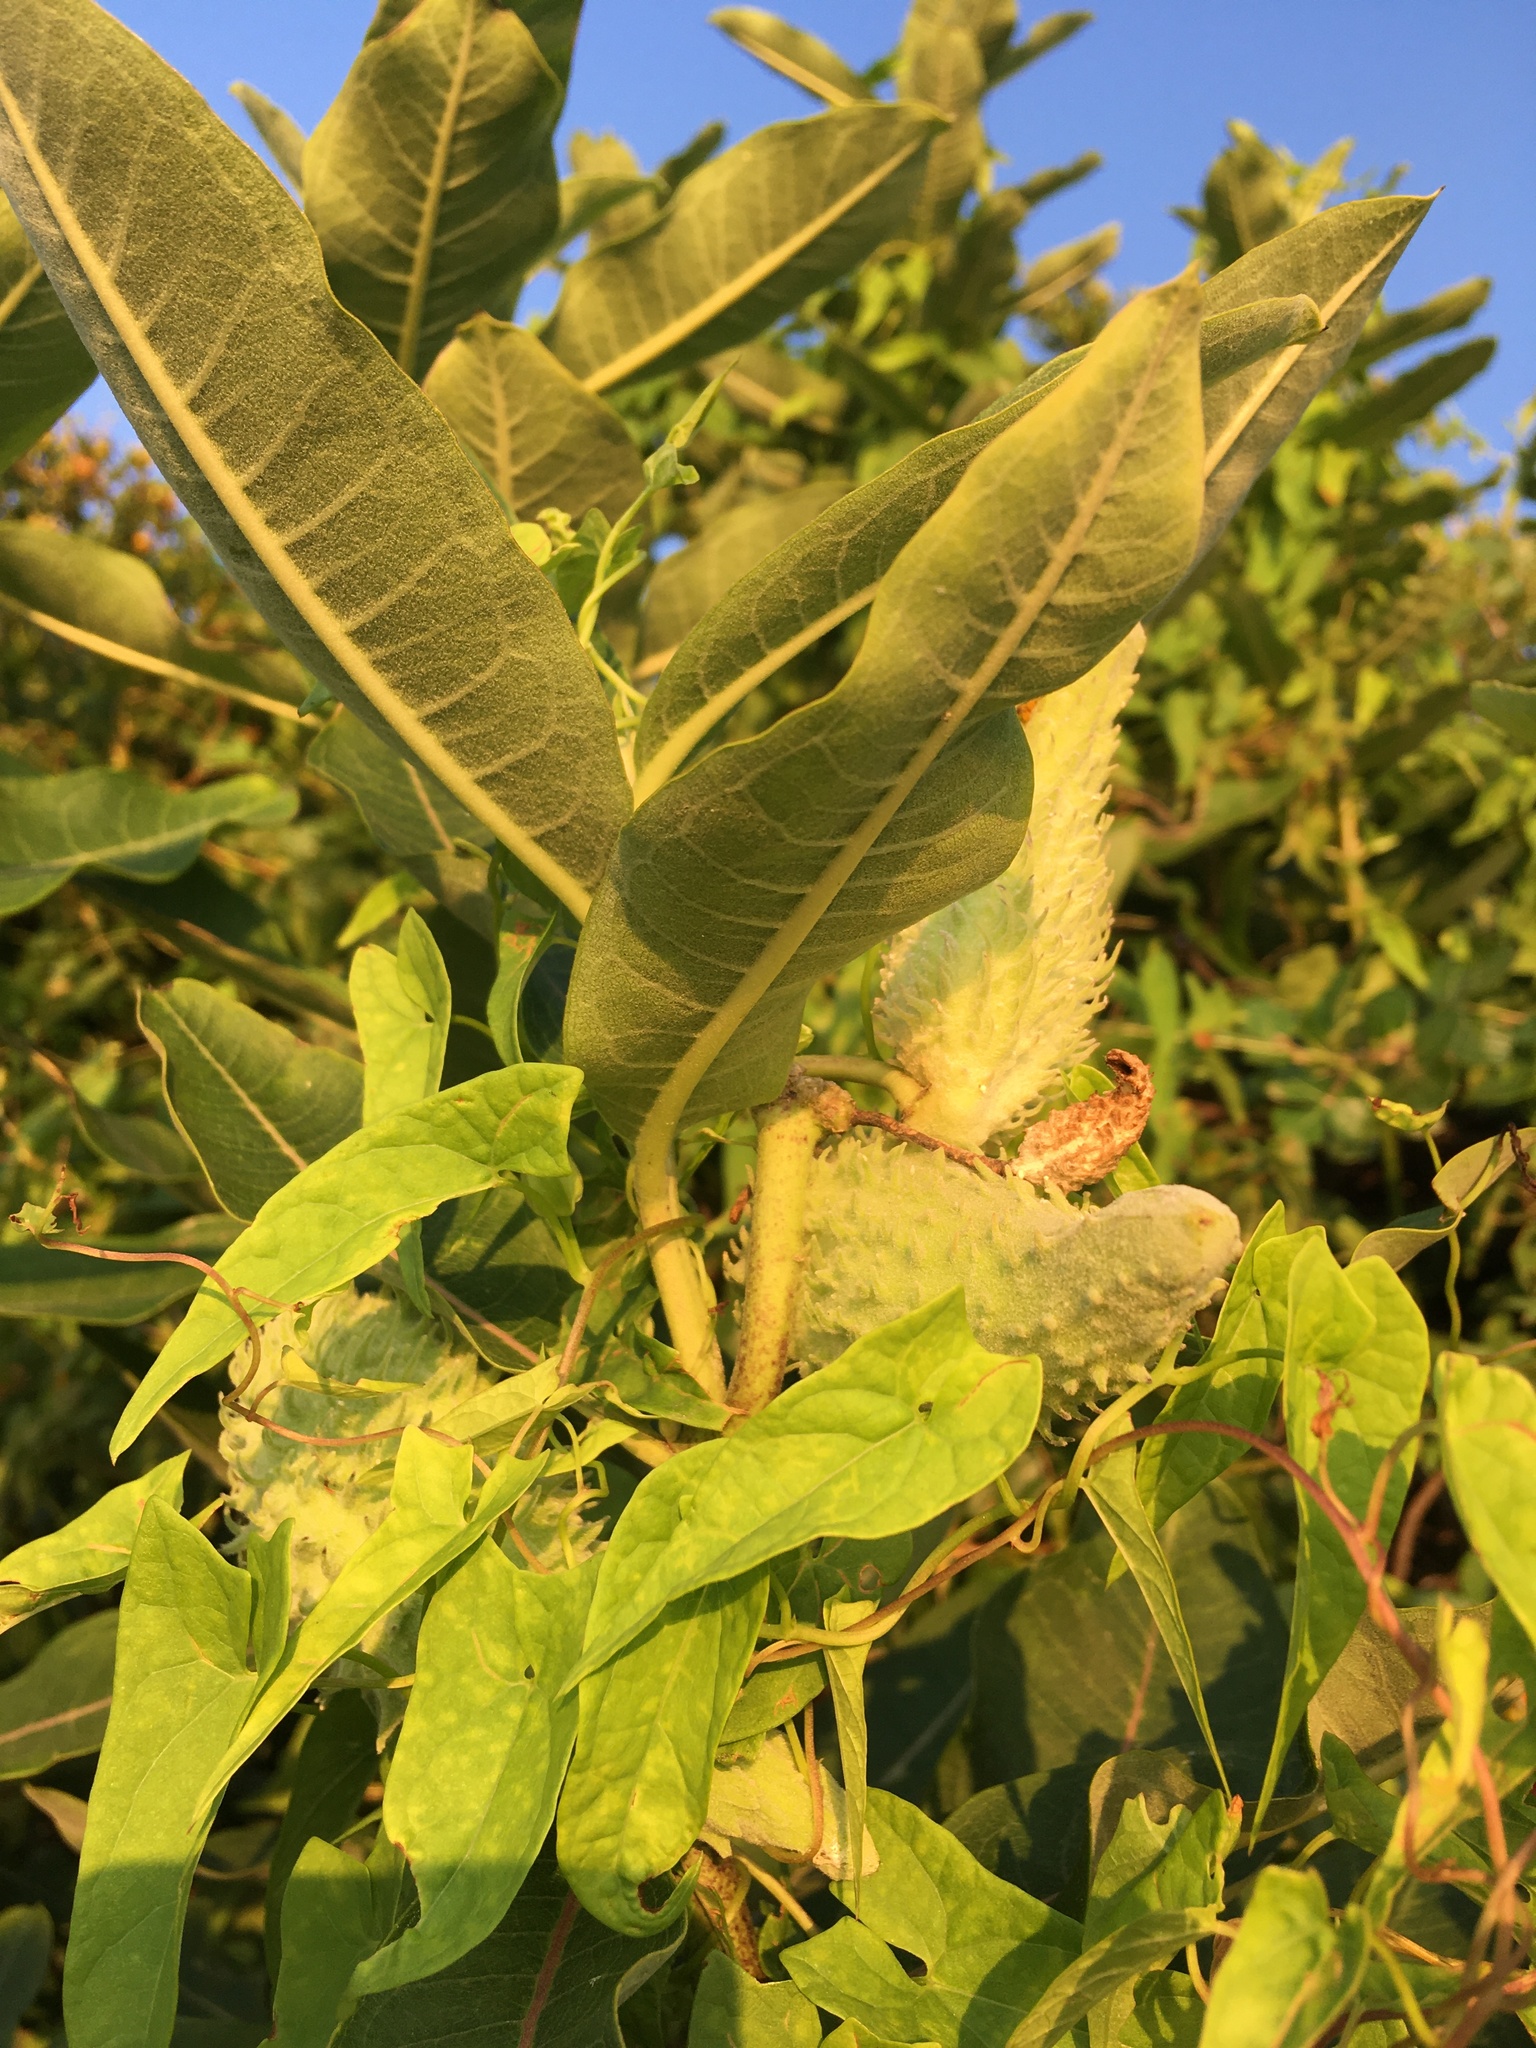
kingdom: Plantae
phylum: Tracheophyta
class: Magnoliopsida
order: Gentianales
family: Apocynaceae
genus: Asclepias
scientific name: Asclepias syriaca
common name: Common milkweed
